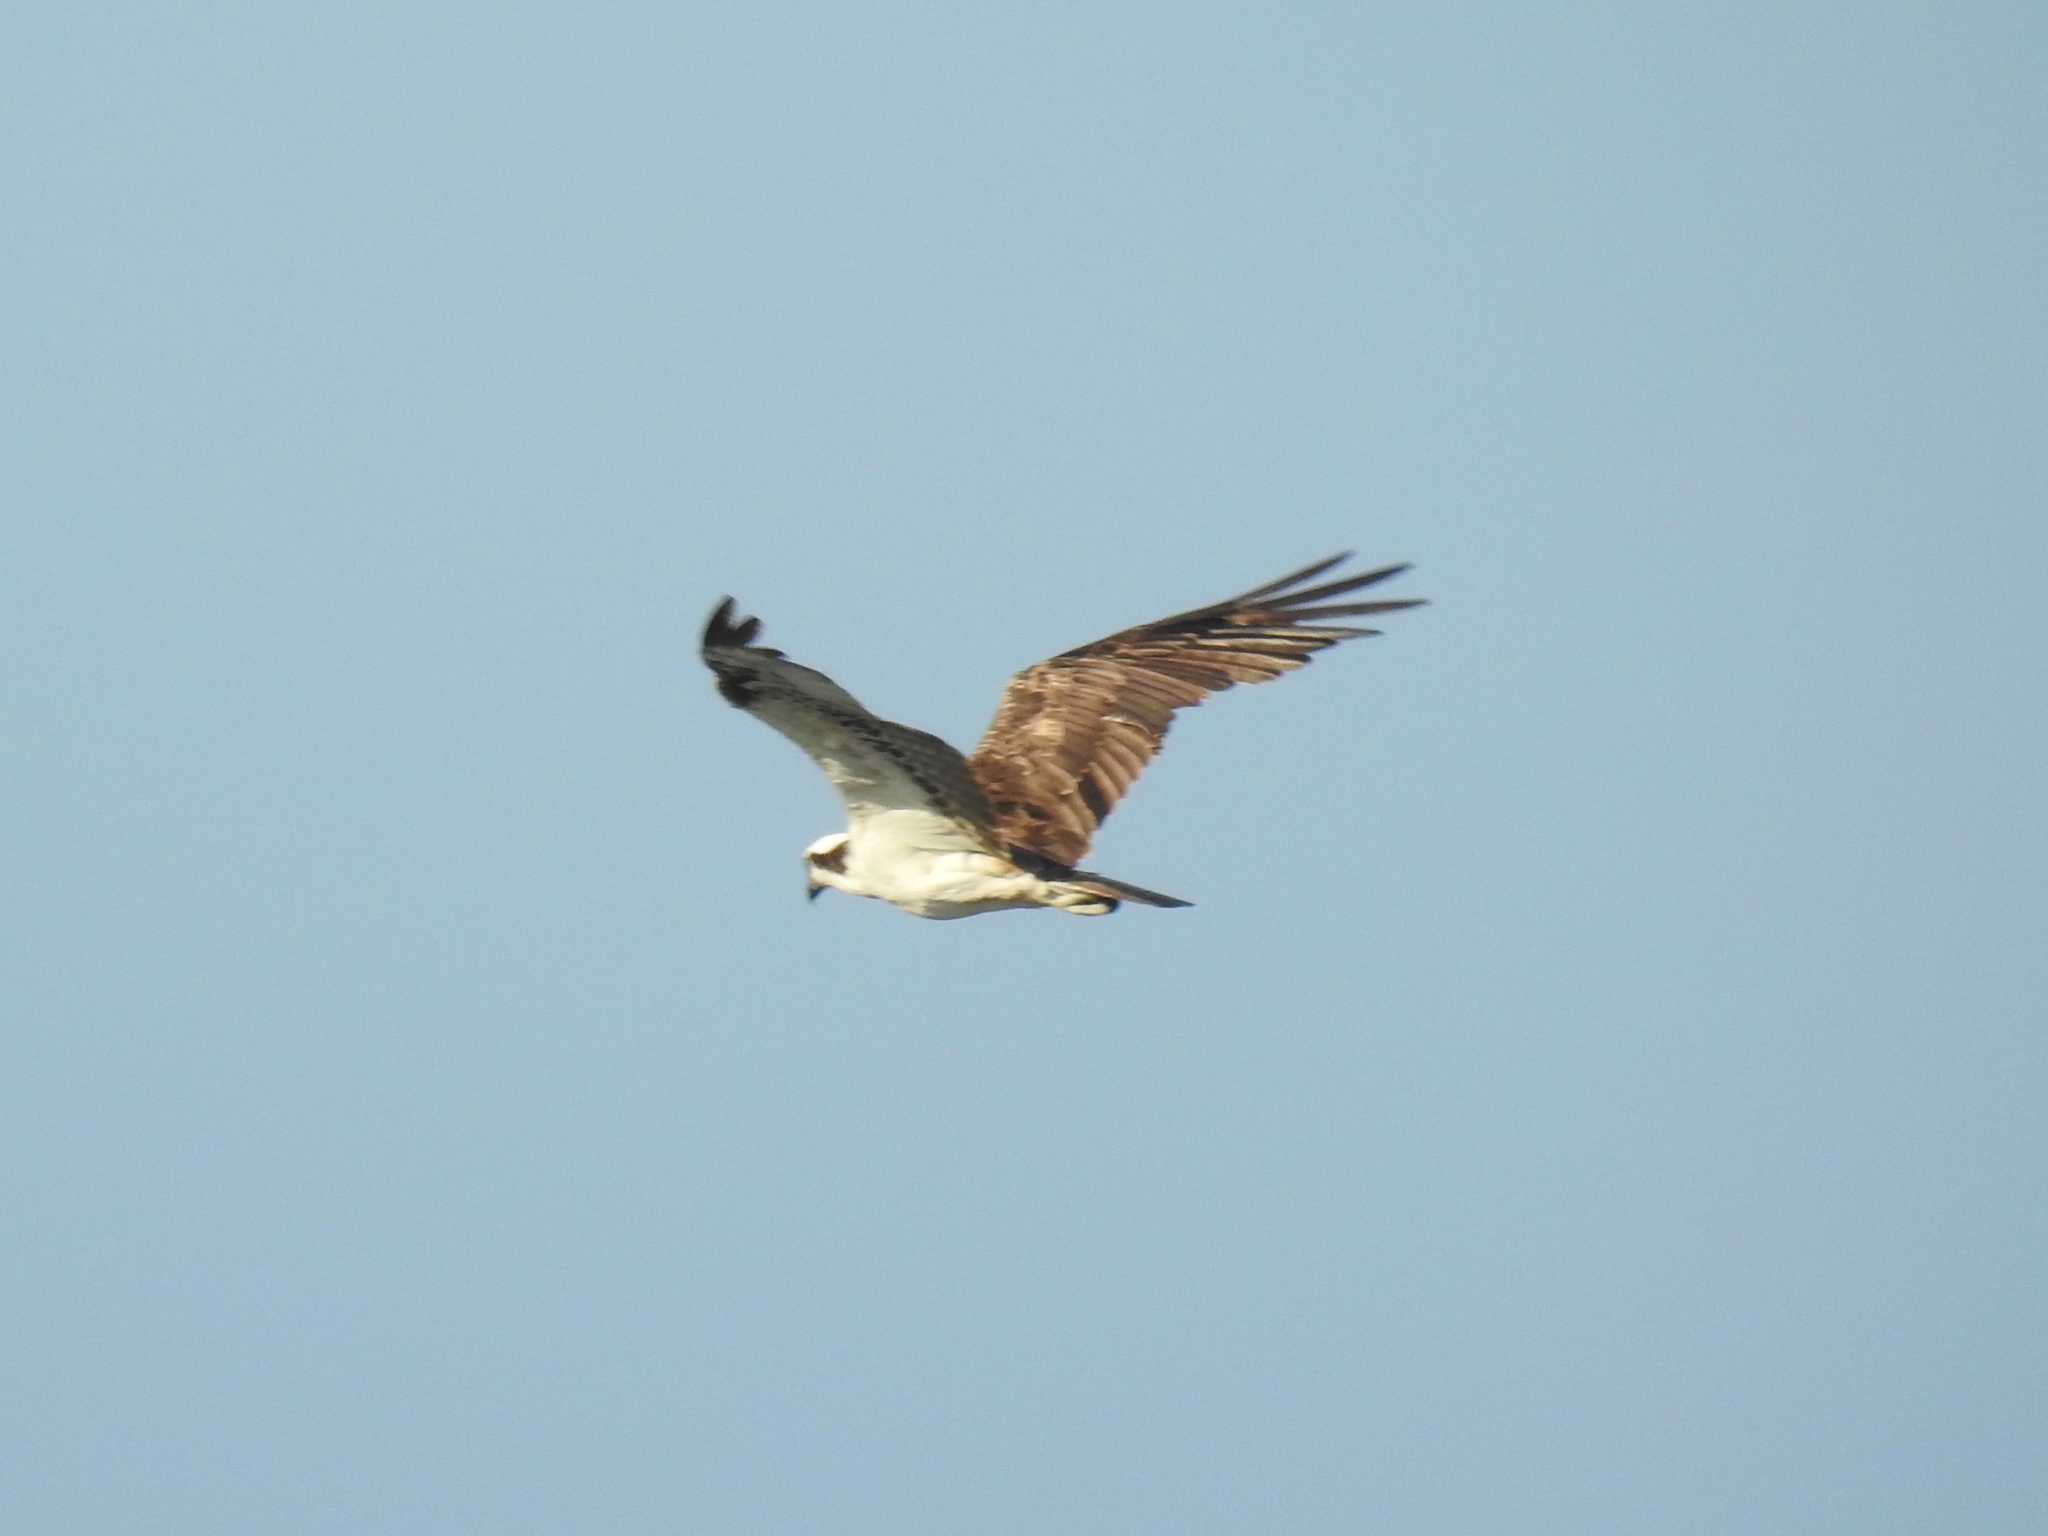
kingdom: Animalia
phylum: Chordata
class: Aves
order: Accipitriformes
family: Pandionidae
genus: Pandion
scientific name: Pandion haliaetus
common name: Osprey
